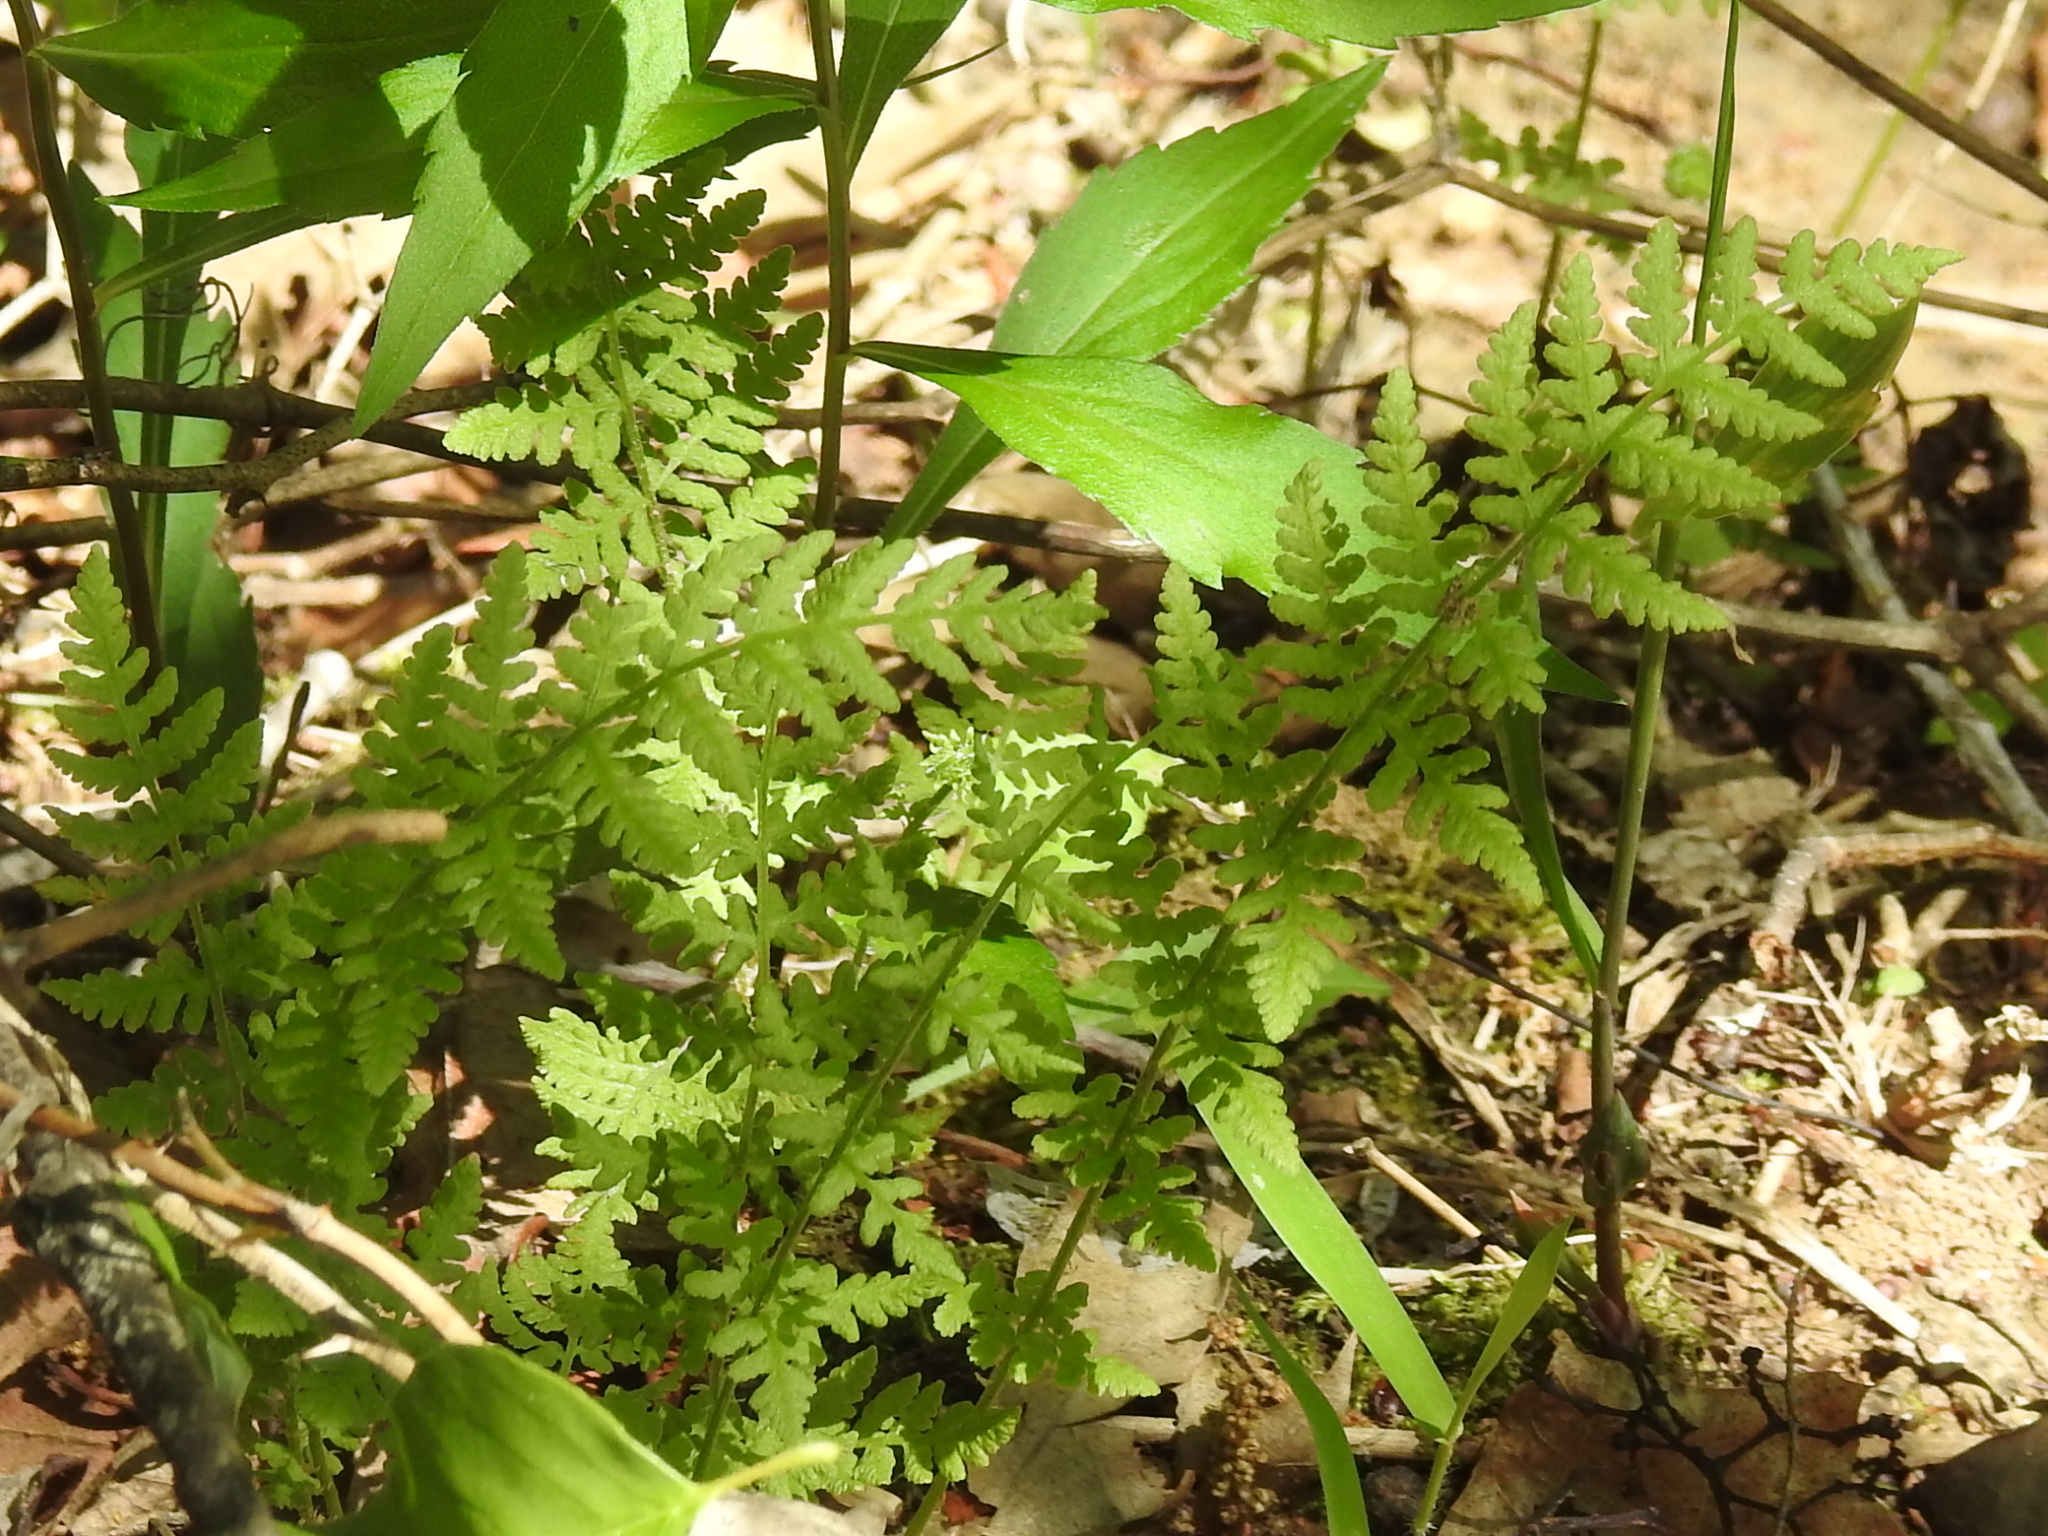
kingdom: Plantae
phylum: Tracheophyta
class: Polypodiopsida
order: Polypodiales
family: Woodsiaceae
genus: Physematium
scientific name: Physematium obtusum
